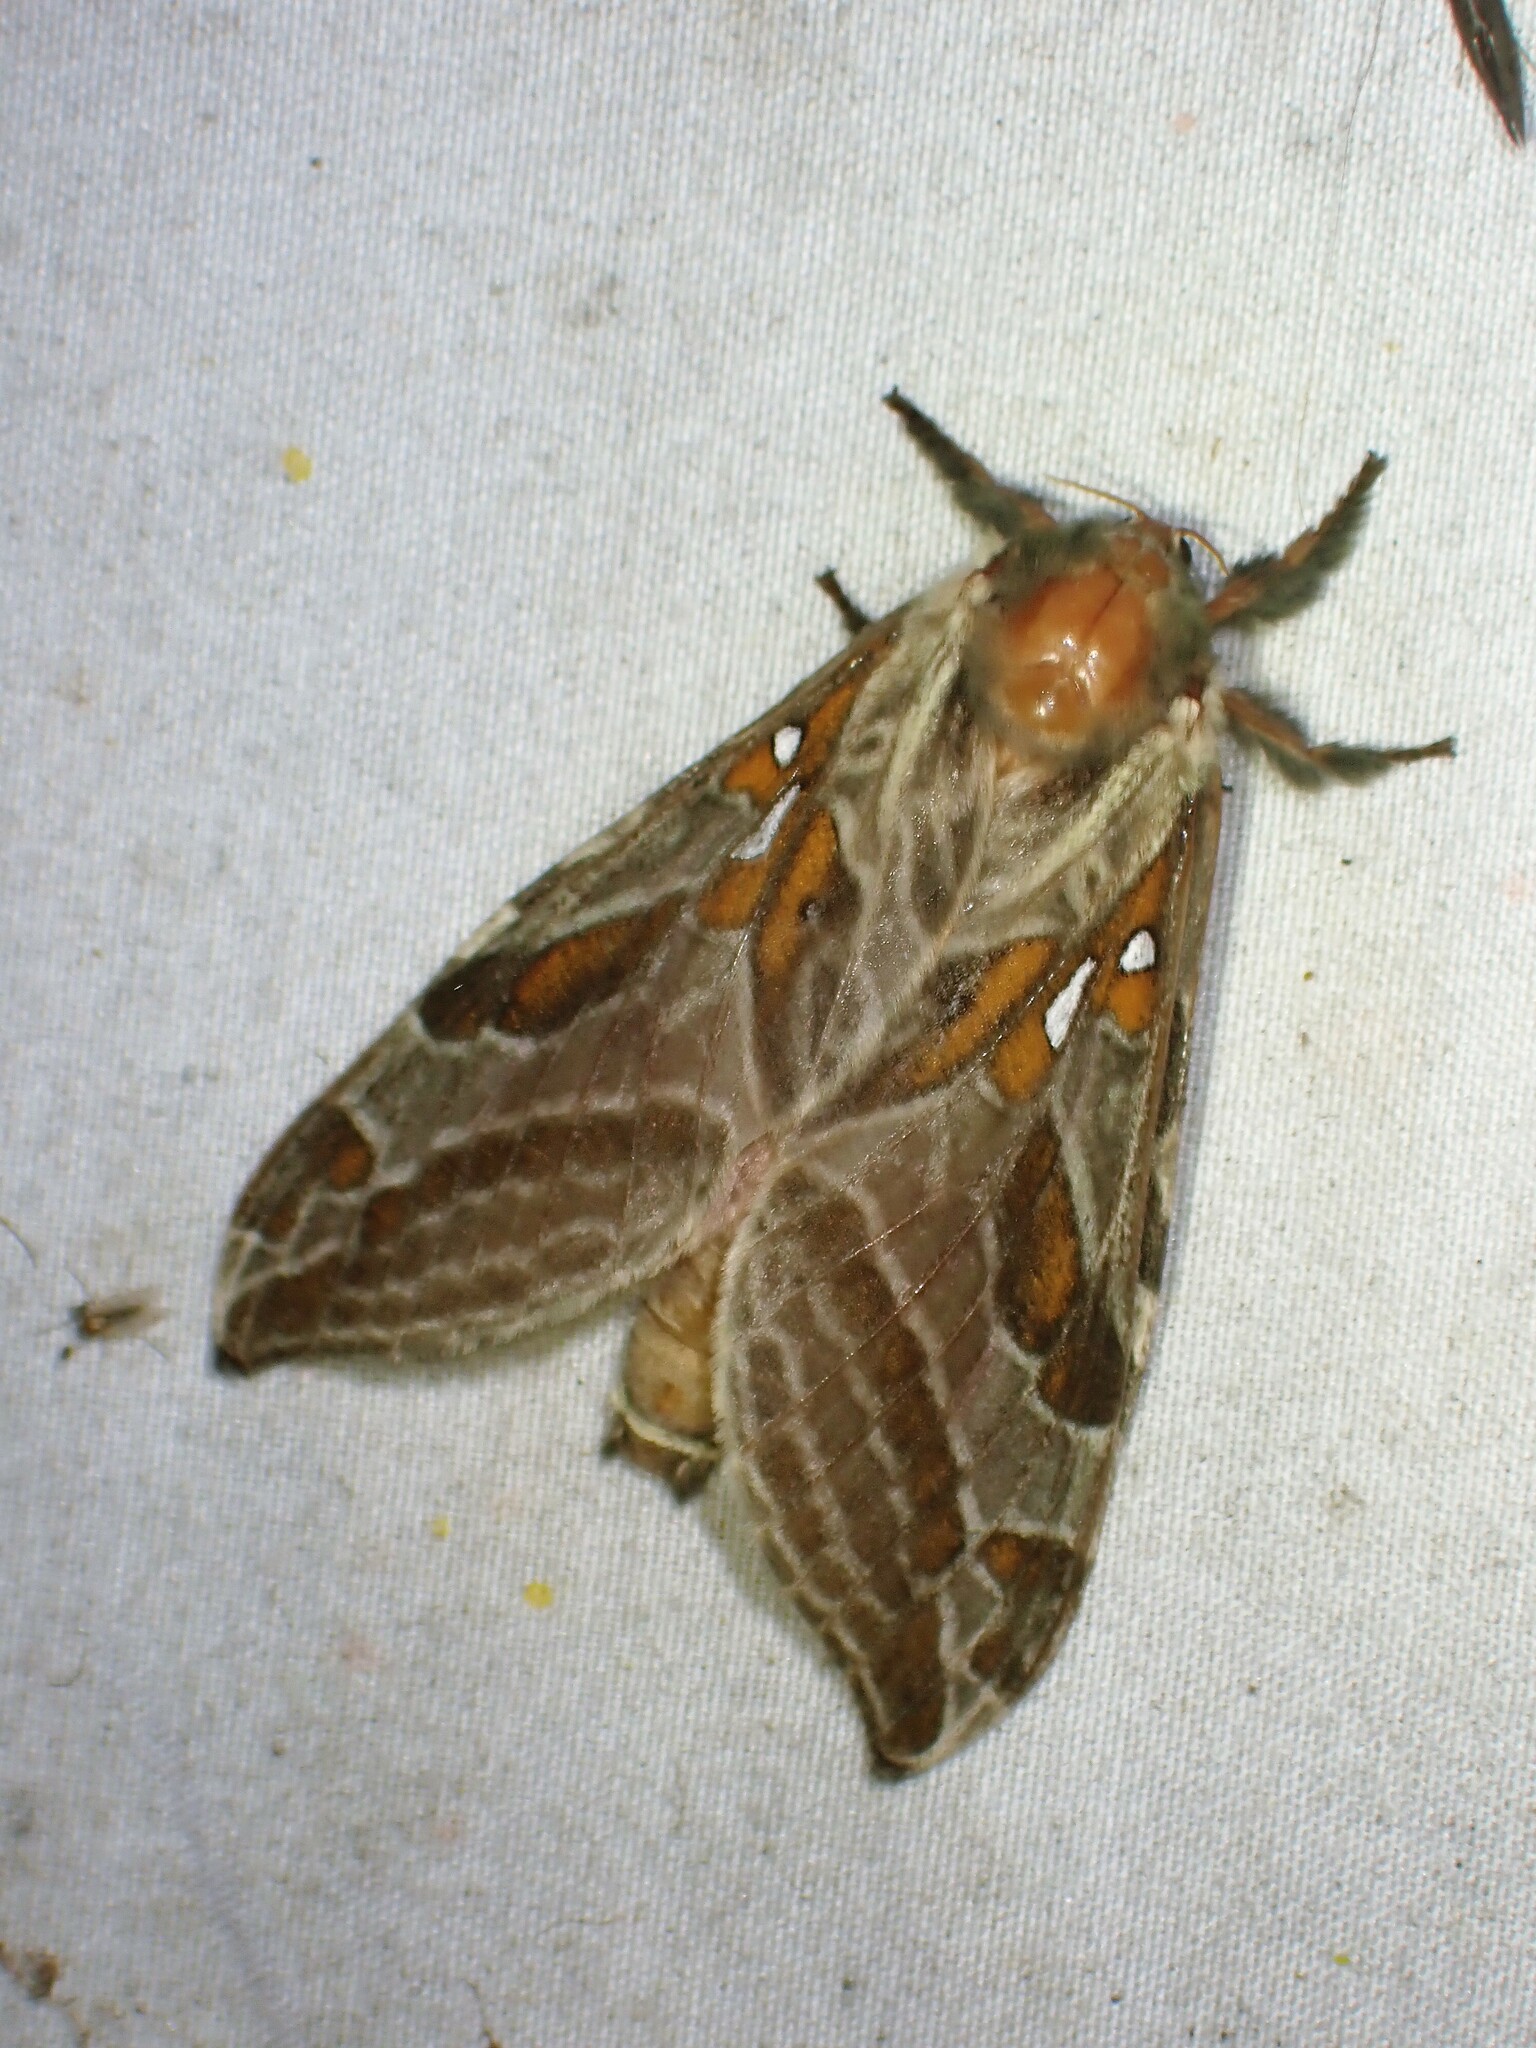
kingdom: Animalia
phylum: Arthropoda
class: Insecta
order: Lepidoptera
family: Hepialidae
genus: Sthenopis
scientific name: Sthenopis argenteomaculatus
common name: Silver-spotted ghost moth
